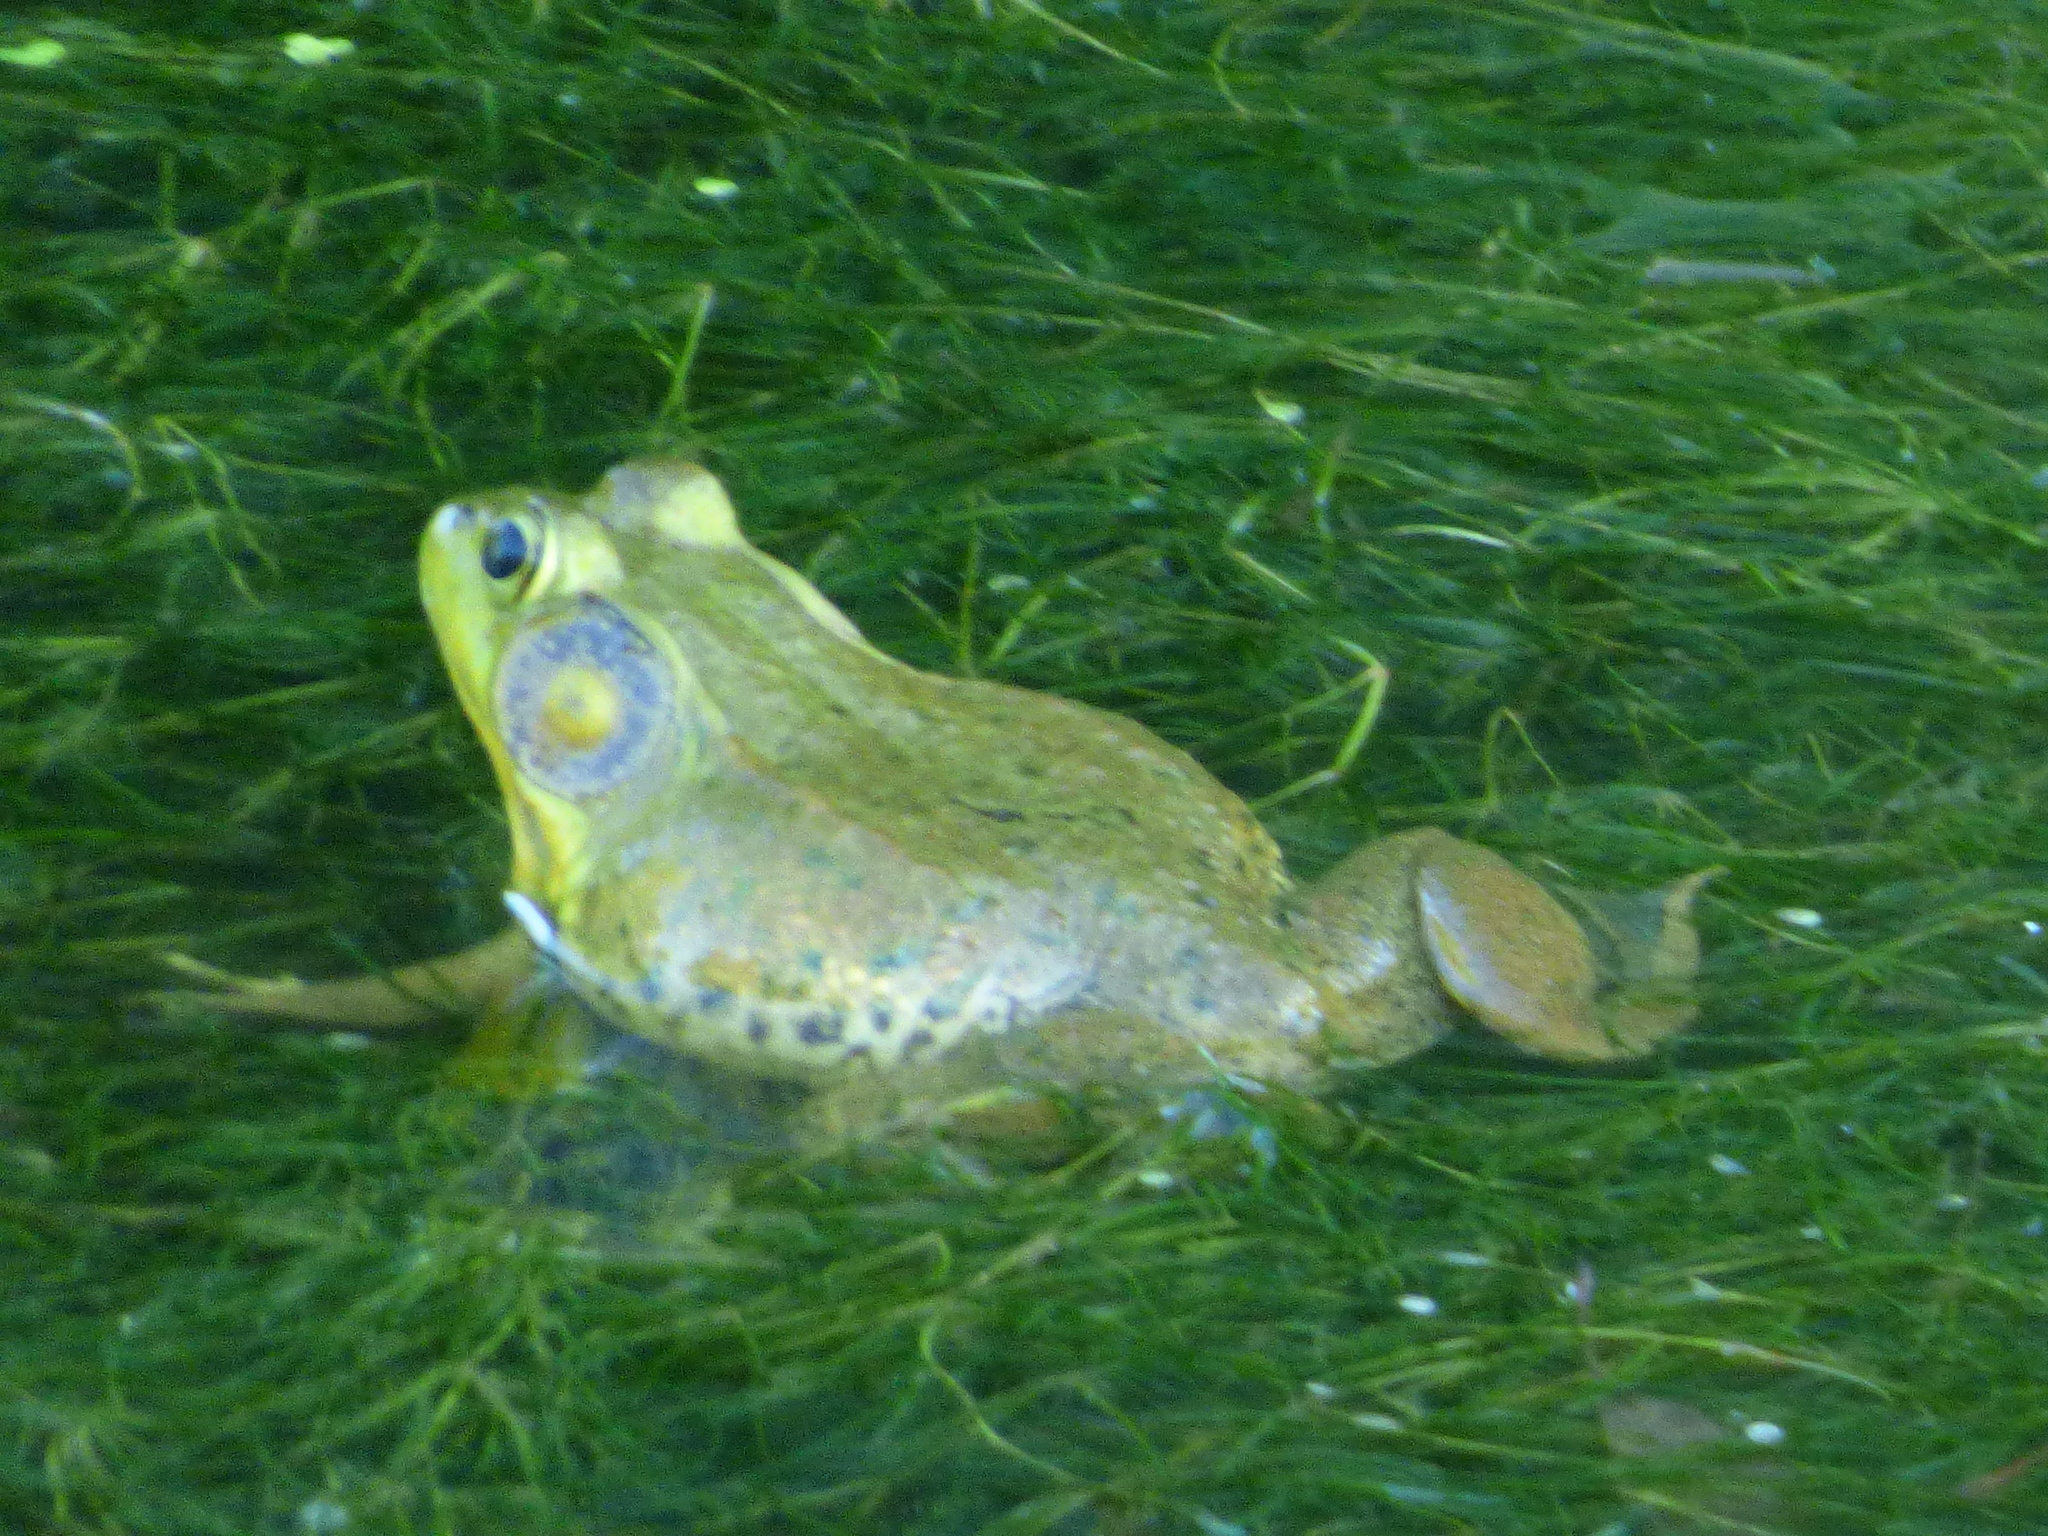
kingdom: Animalia
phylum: Chordata
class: Amphibia
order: Anura
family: Ranidae
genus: Lithobates
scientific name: Lithobates clamitans
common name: Green frog
